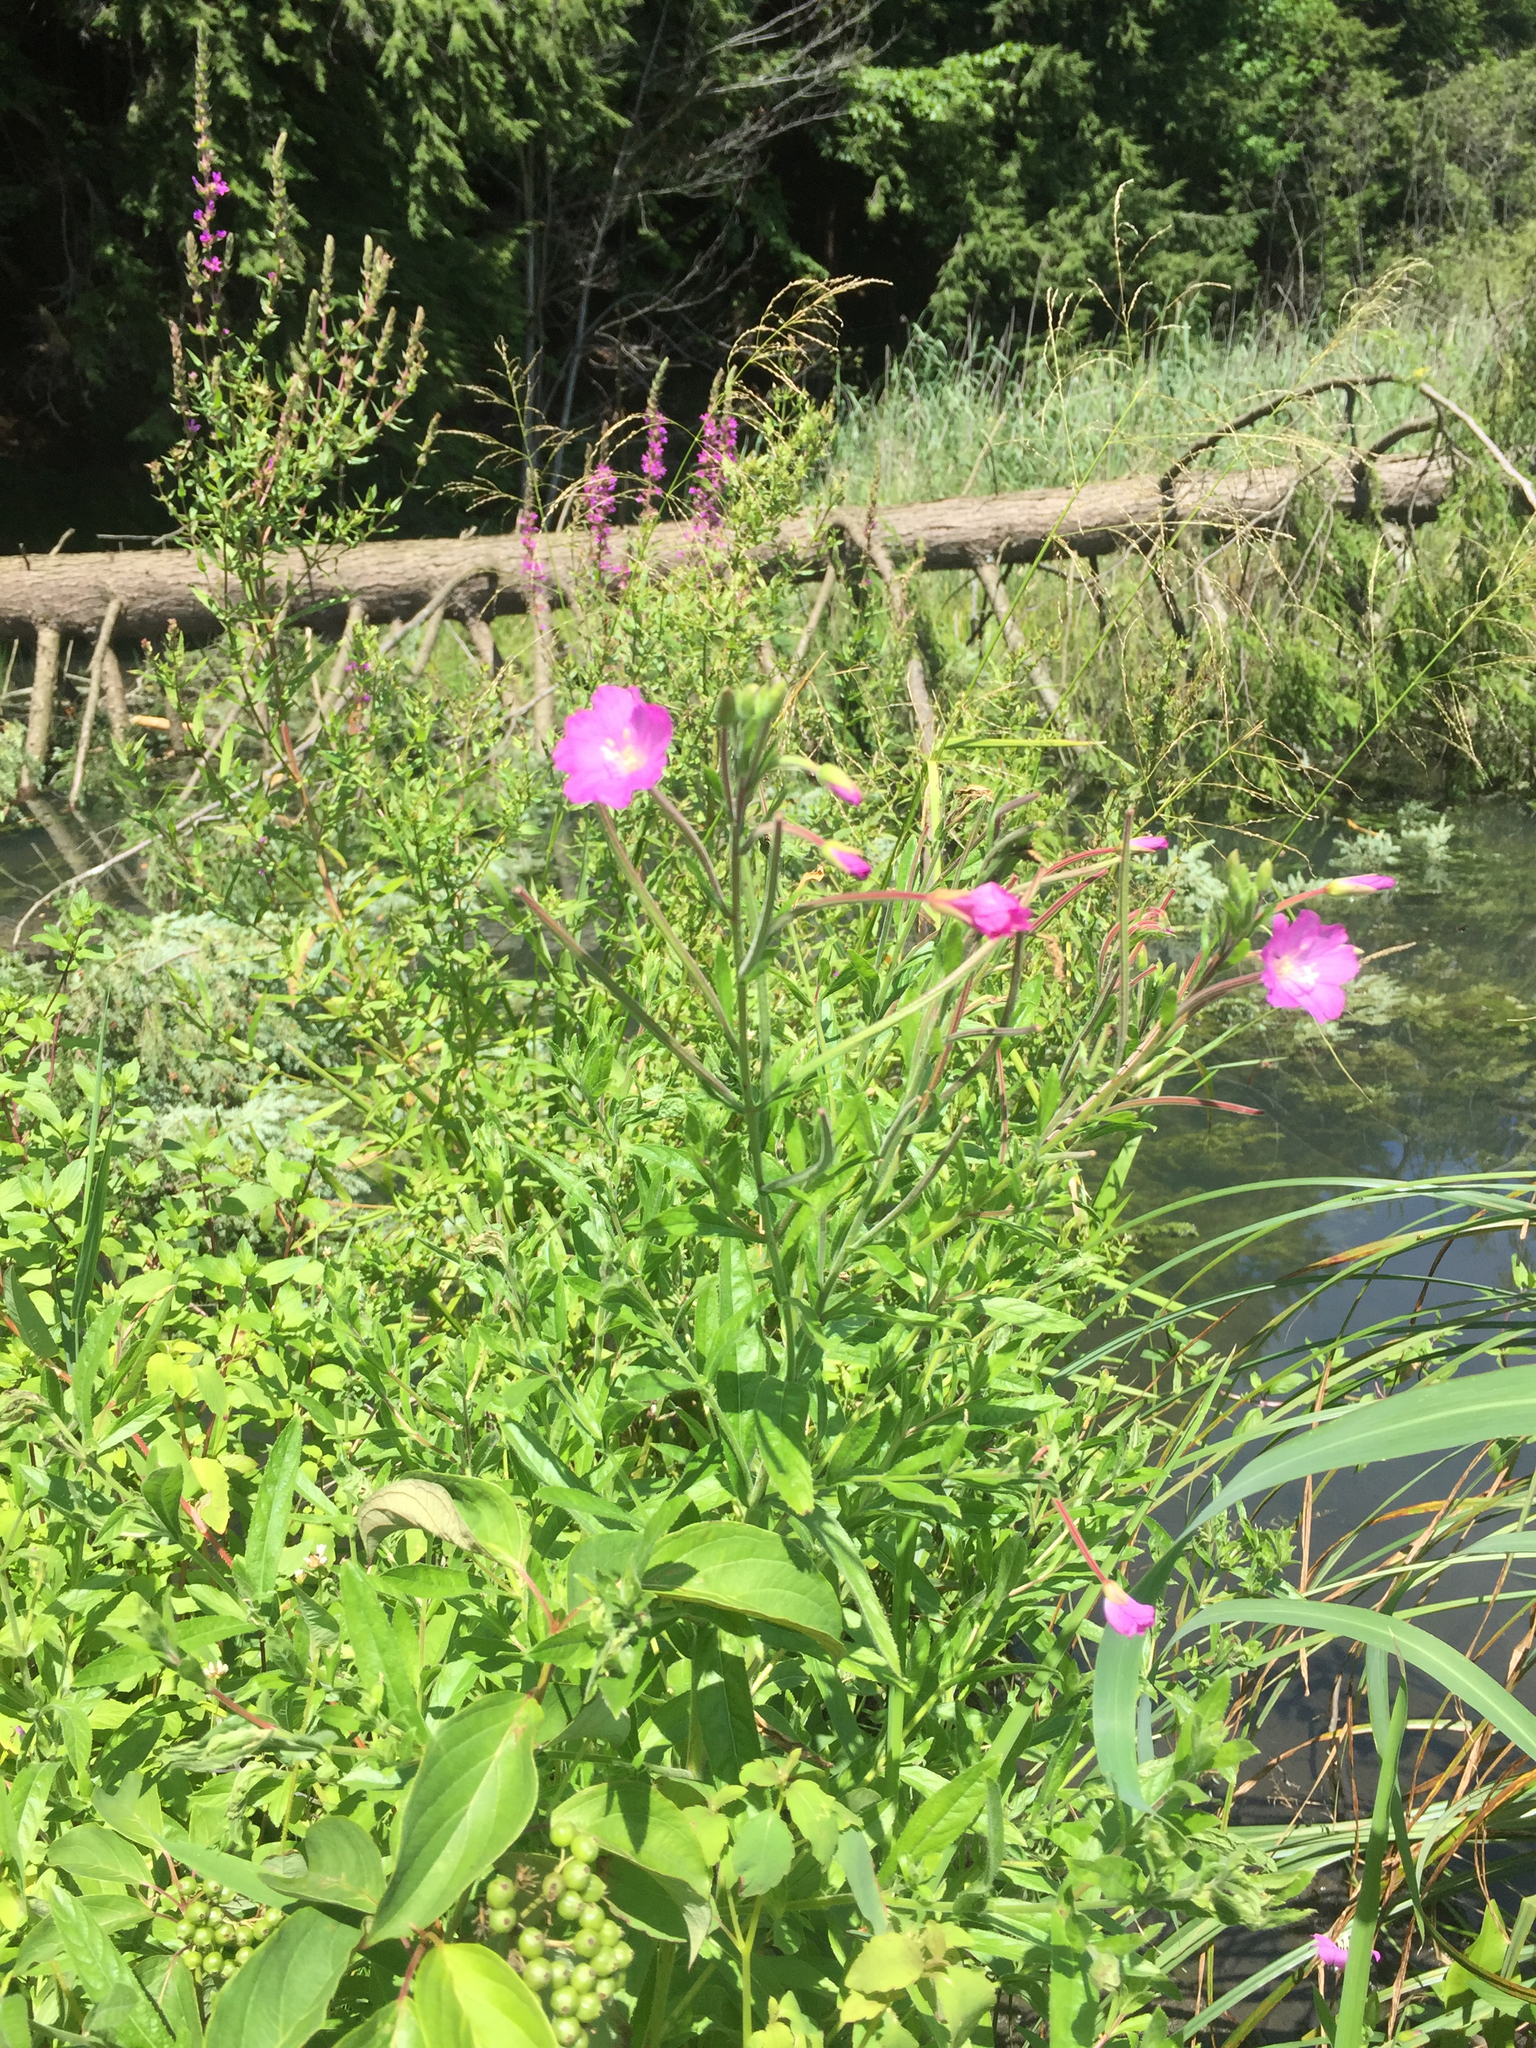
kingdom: Plantae
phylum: Tracheophyta
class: Magnoliopsida
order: Myrtales
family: Onagraceae
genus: Epilobium
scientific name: Epilobium hirsutum
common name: Great willowherb
